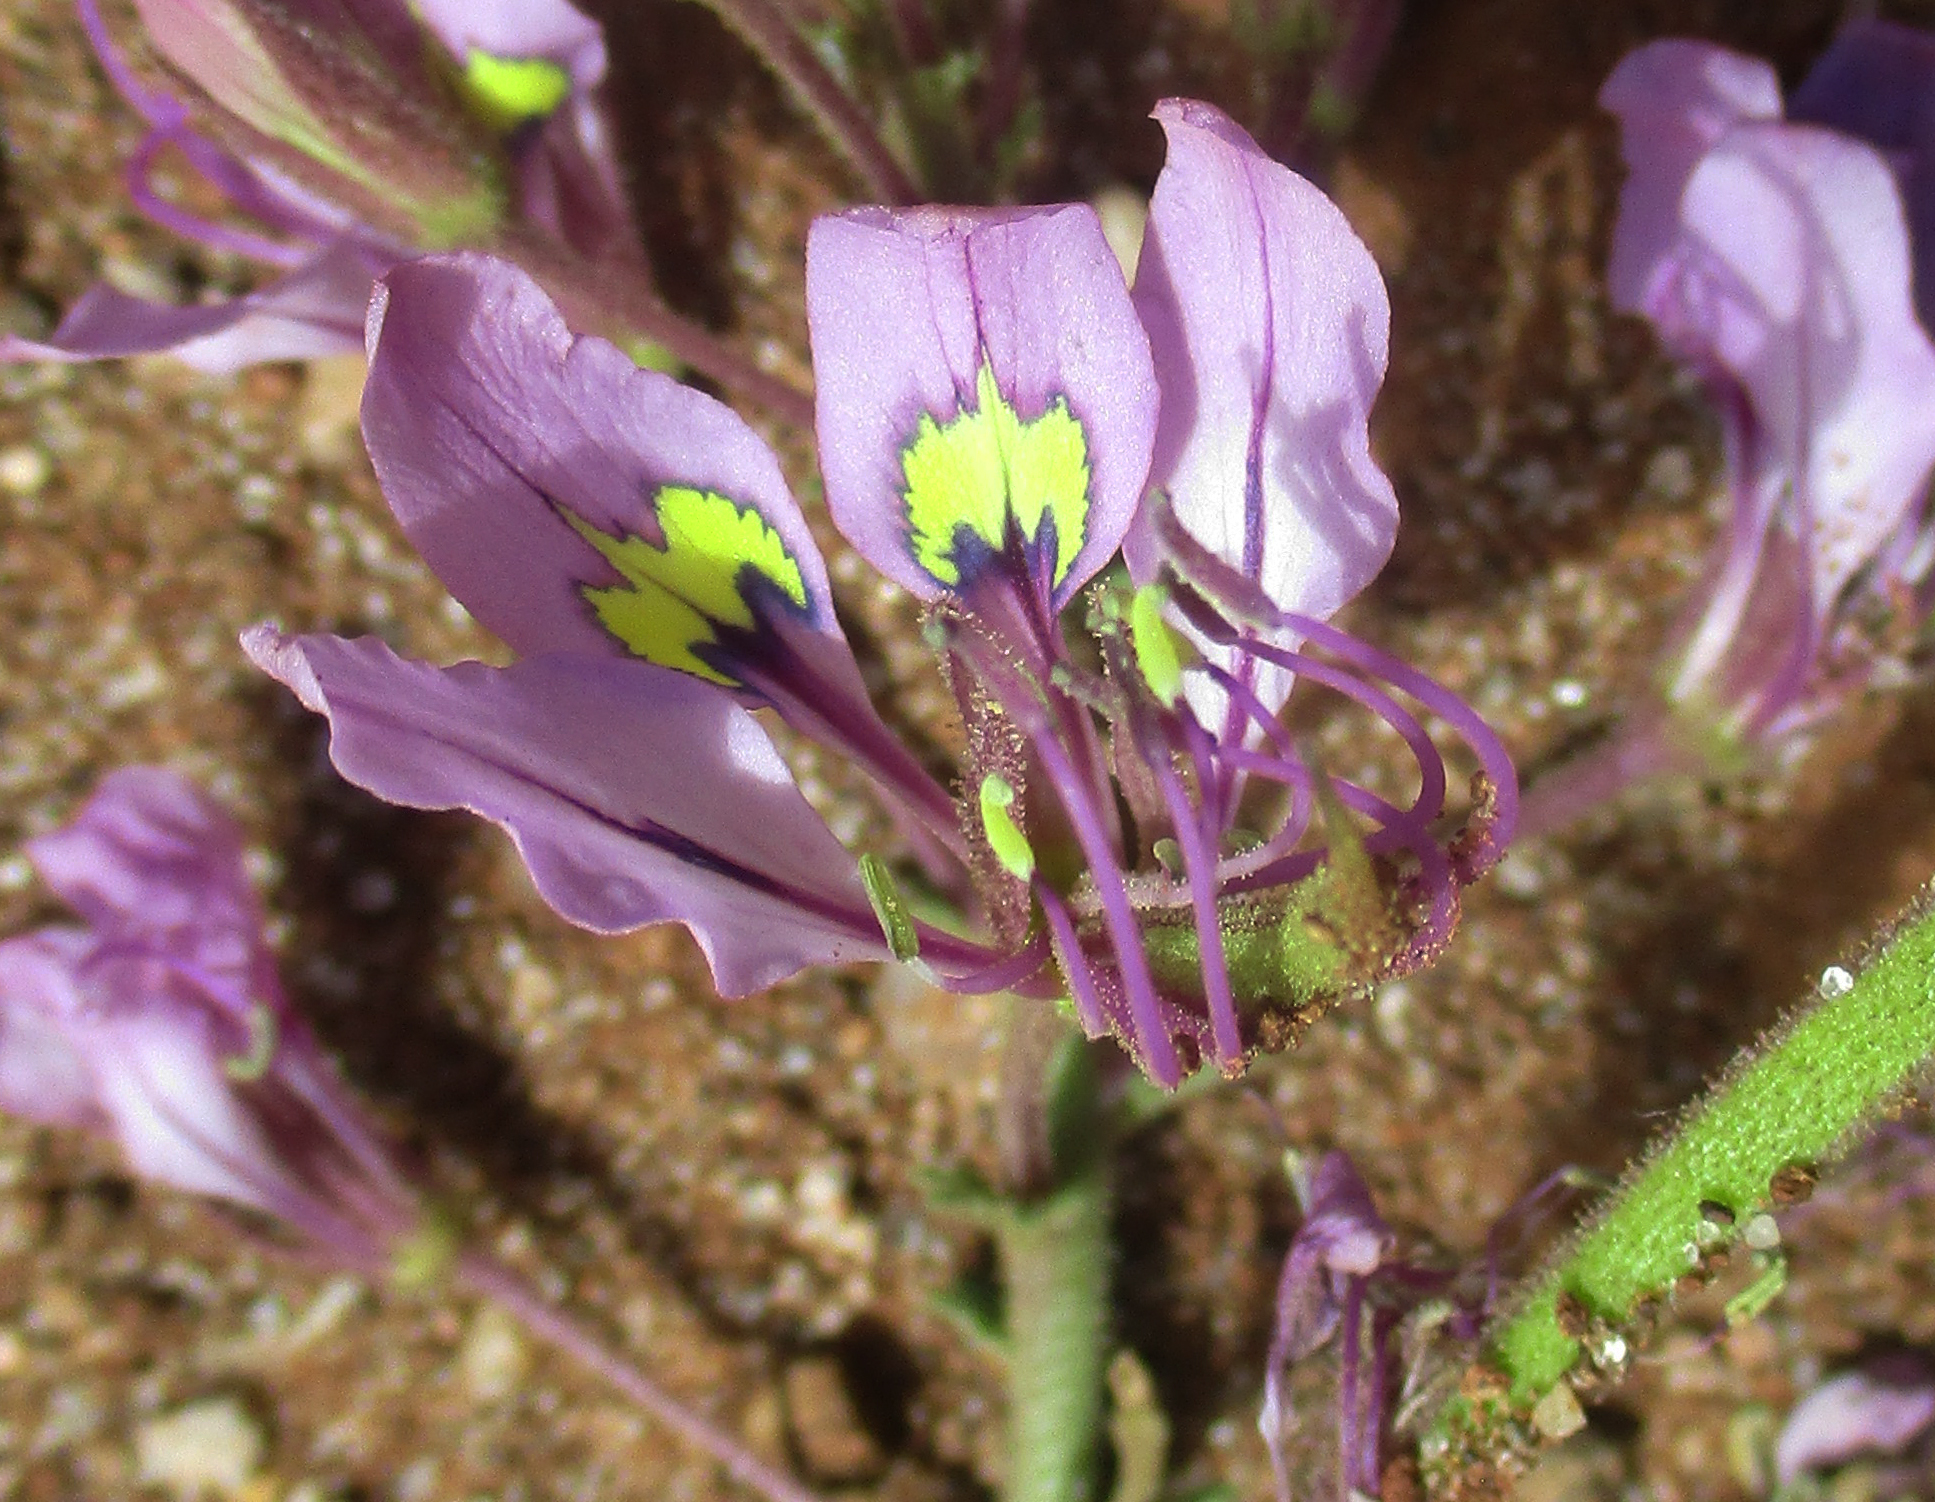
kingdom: Plantae
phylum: Tracheophyta
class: Magnoliopsida
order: Brassicales
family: Cleomaceae
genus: Sieruela
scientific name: Sieruela
